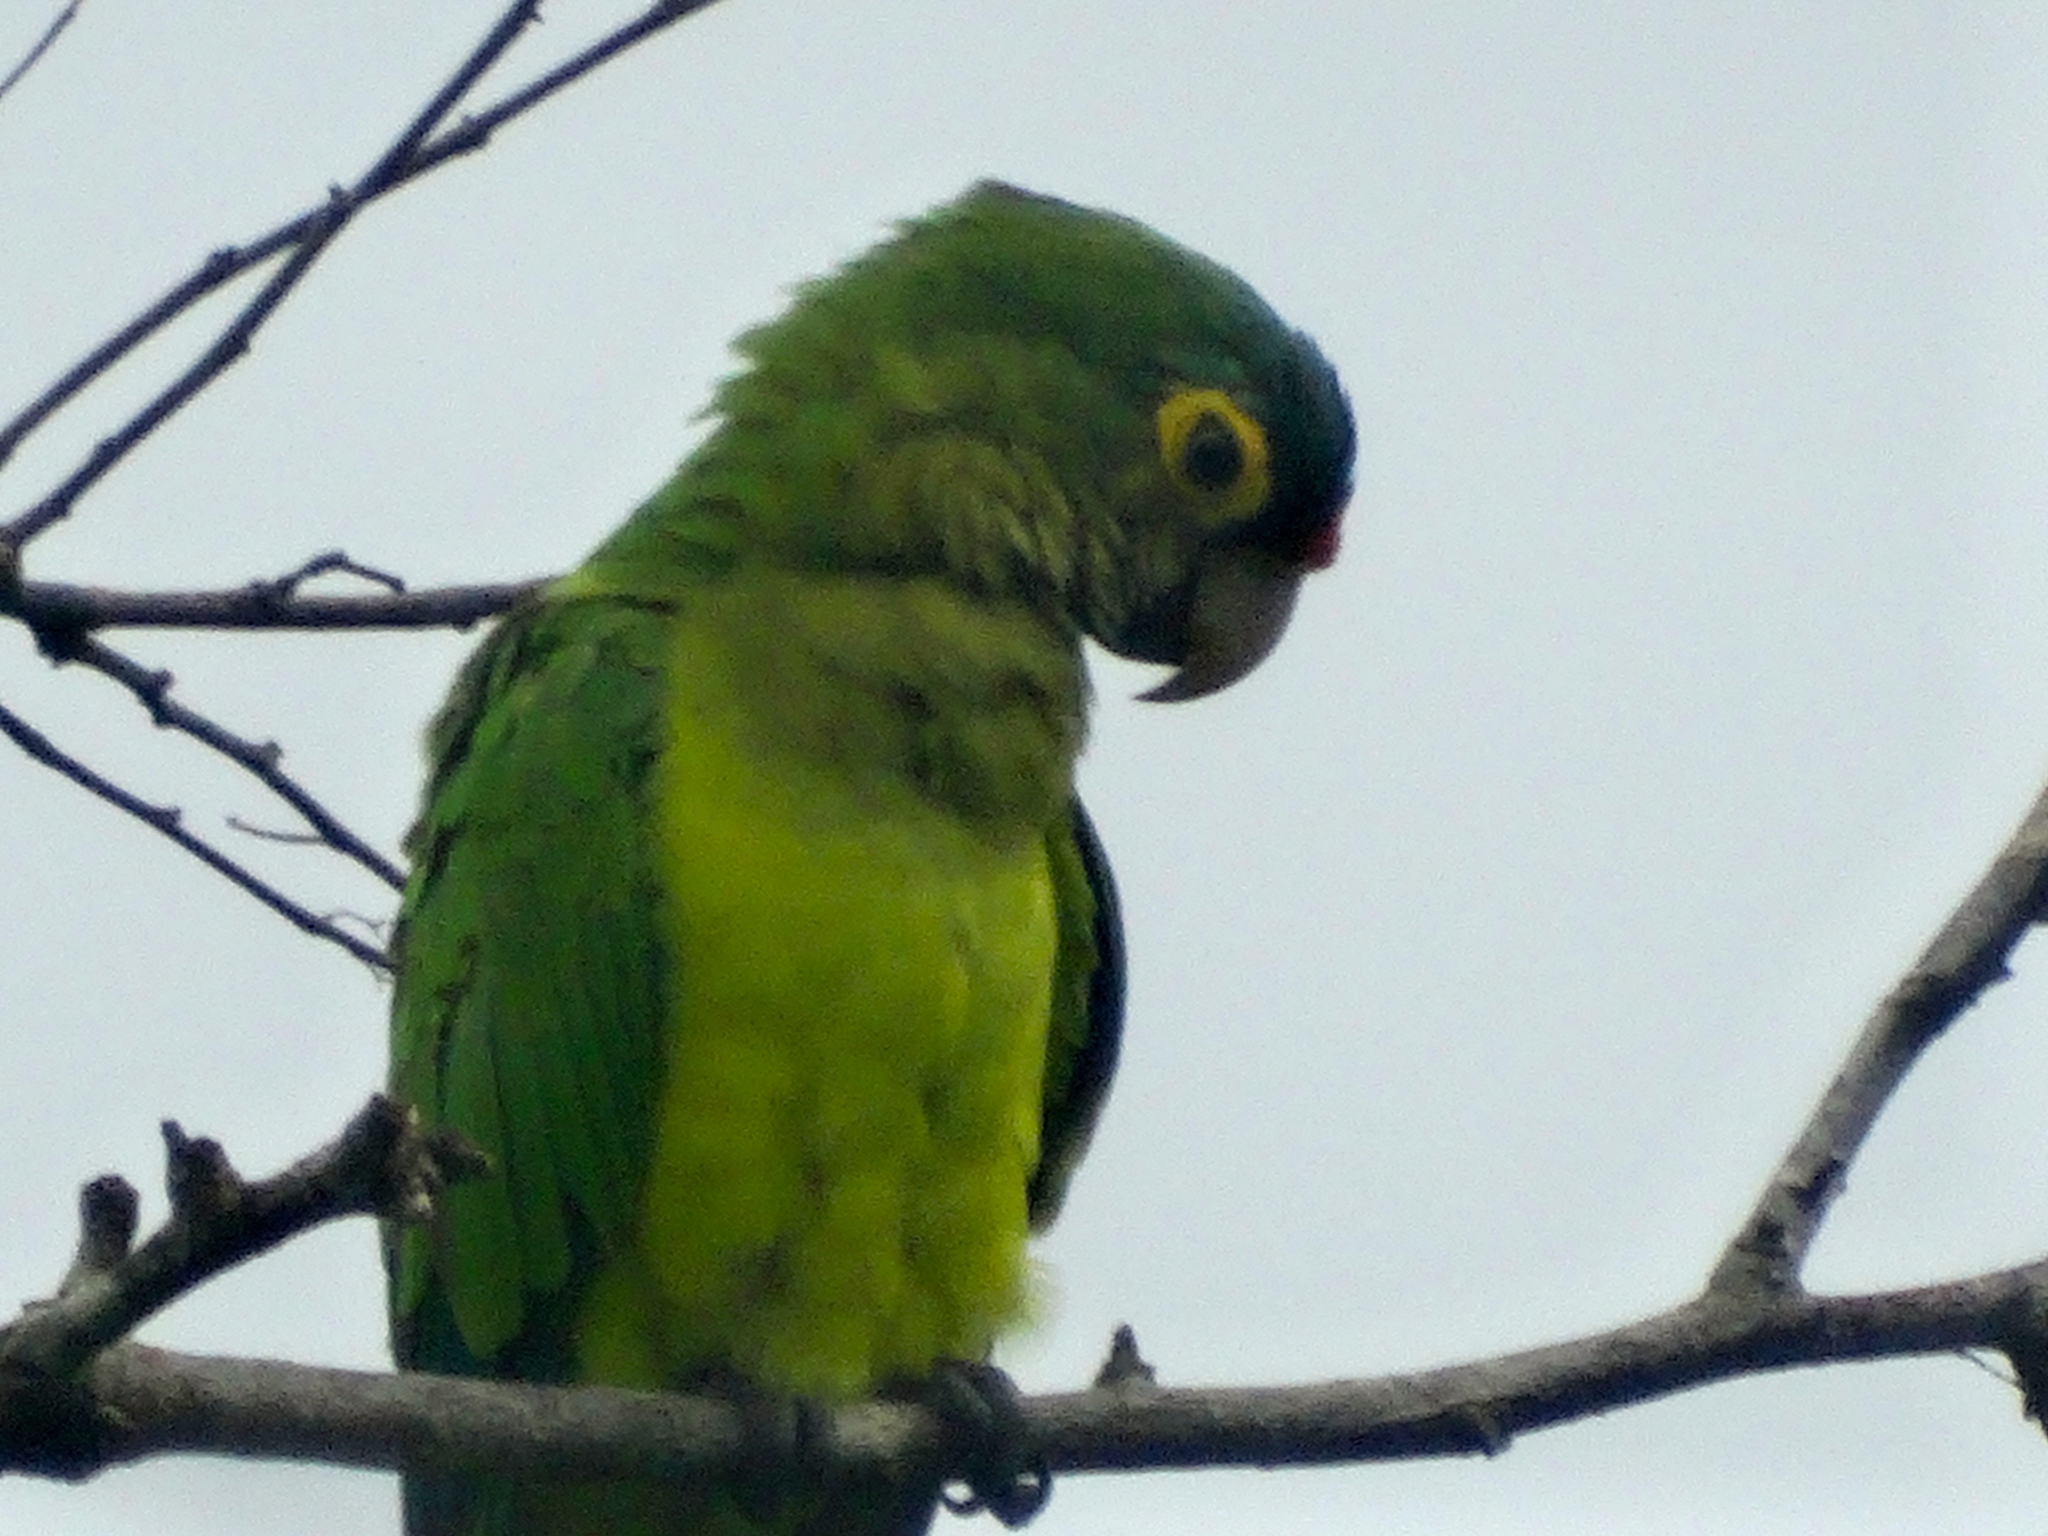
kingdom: Animalia
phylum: Chordata
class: Aves
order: Psittaciformes
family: Psittacidae
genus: Aratinga
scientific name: Aratinga canicularis
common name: Orange-fronted parakeet
